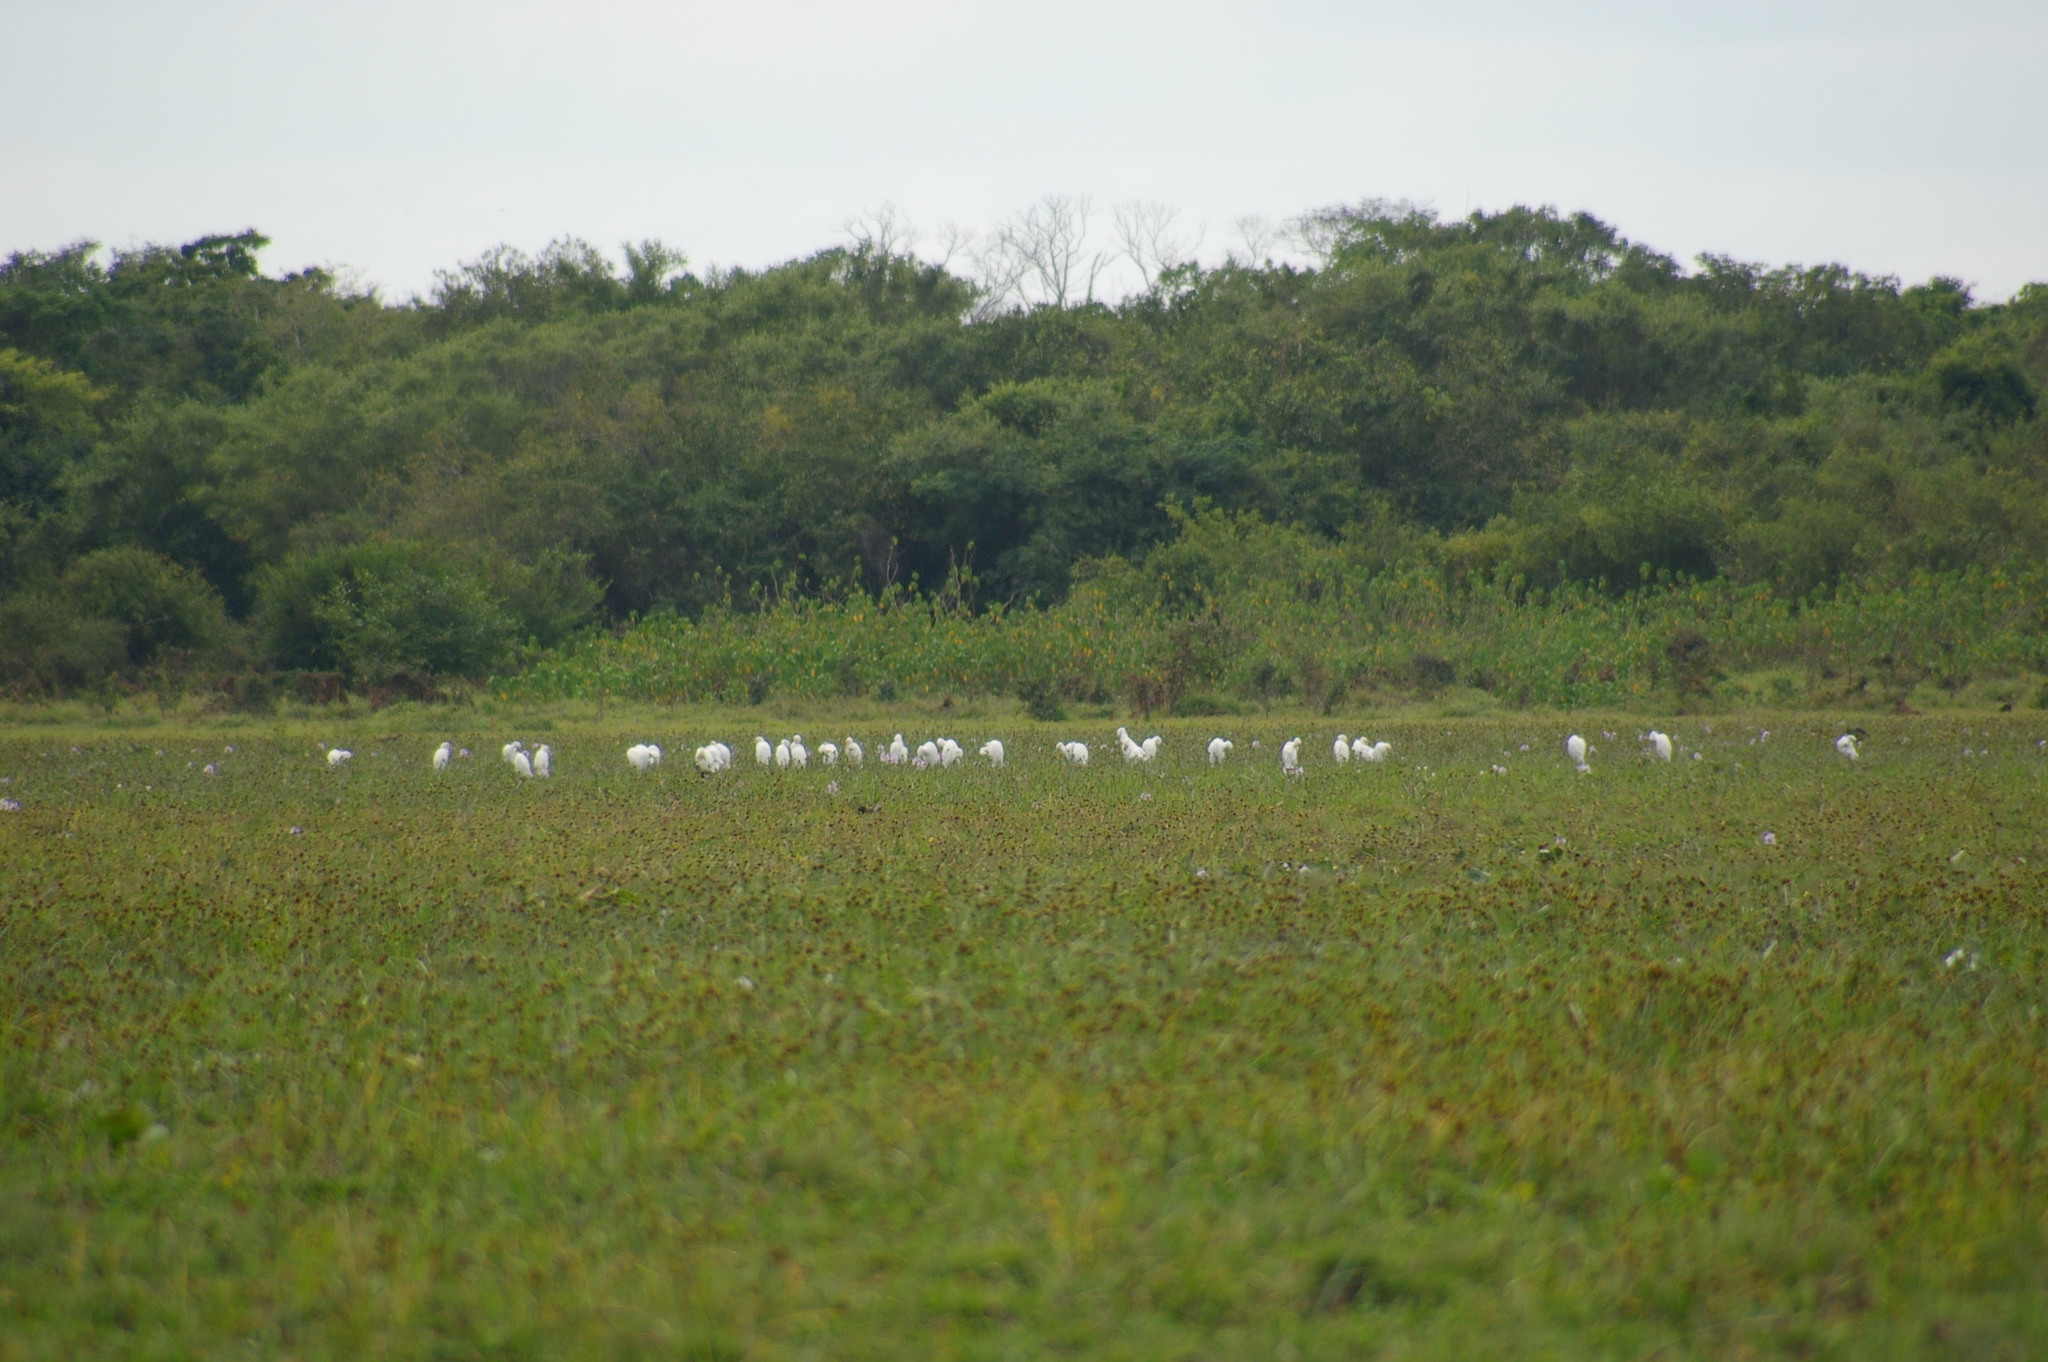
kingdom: Animalia
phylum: Chordata
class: Aves
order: Pelecaniformes
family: Ardeidae
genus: Bubulcus
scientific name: Bubulcus ibis
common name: Cattle egret
